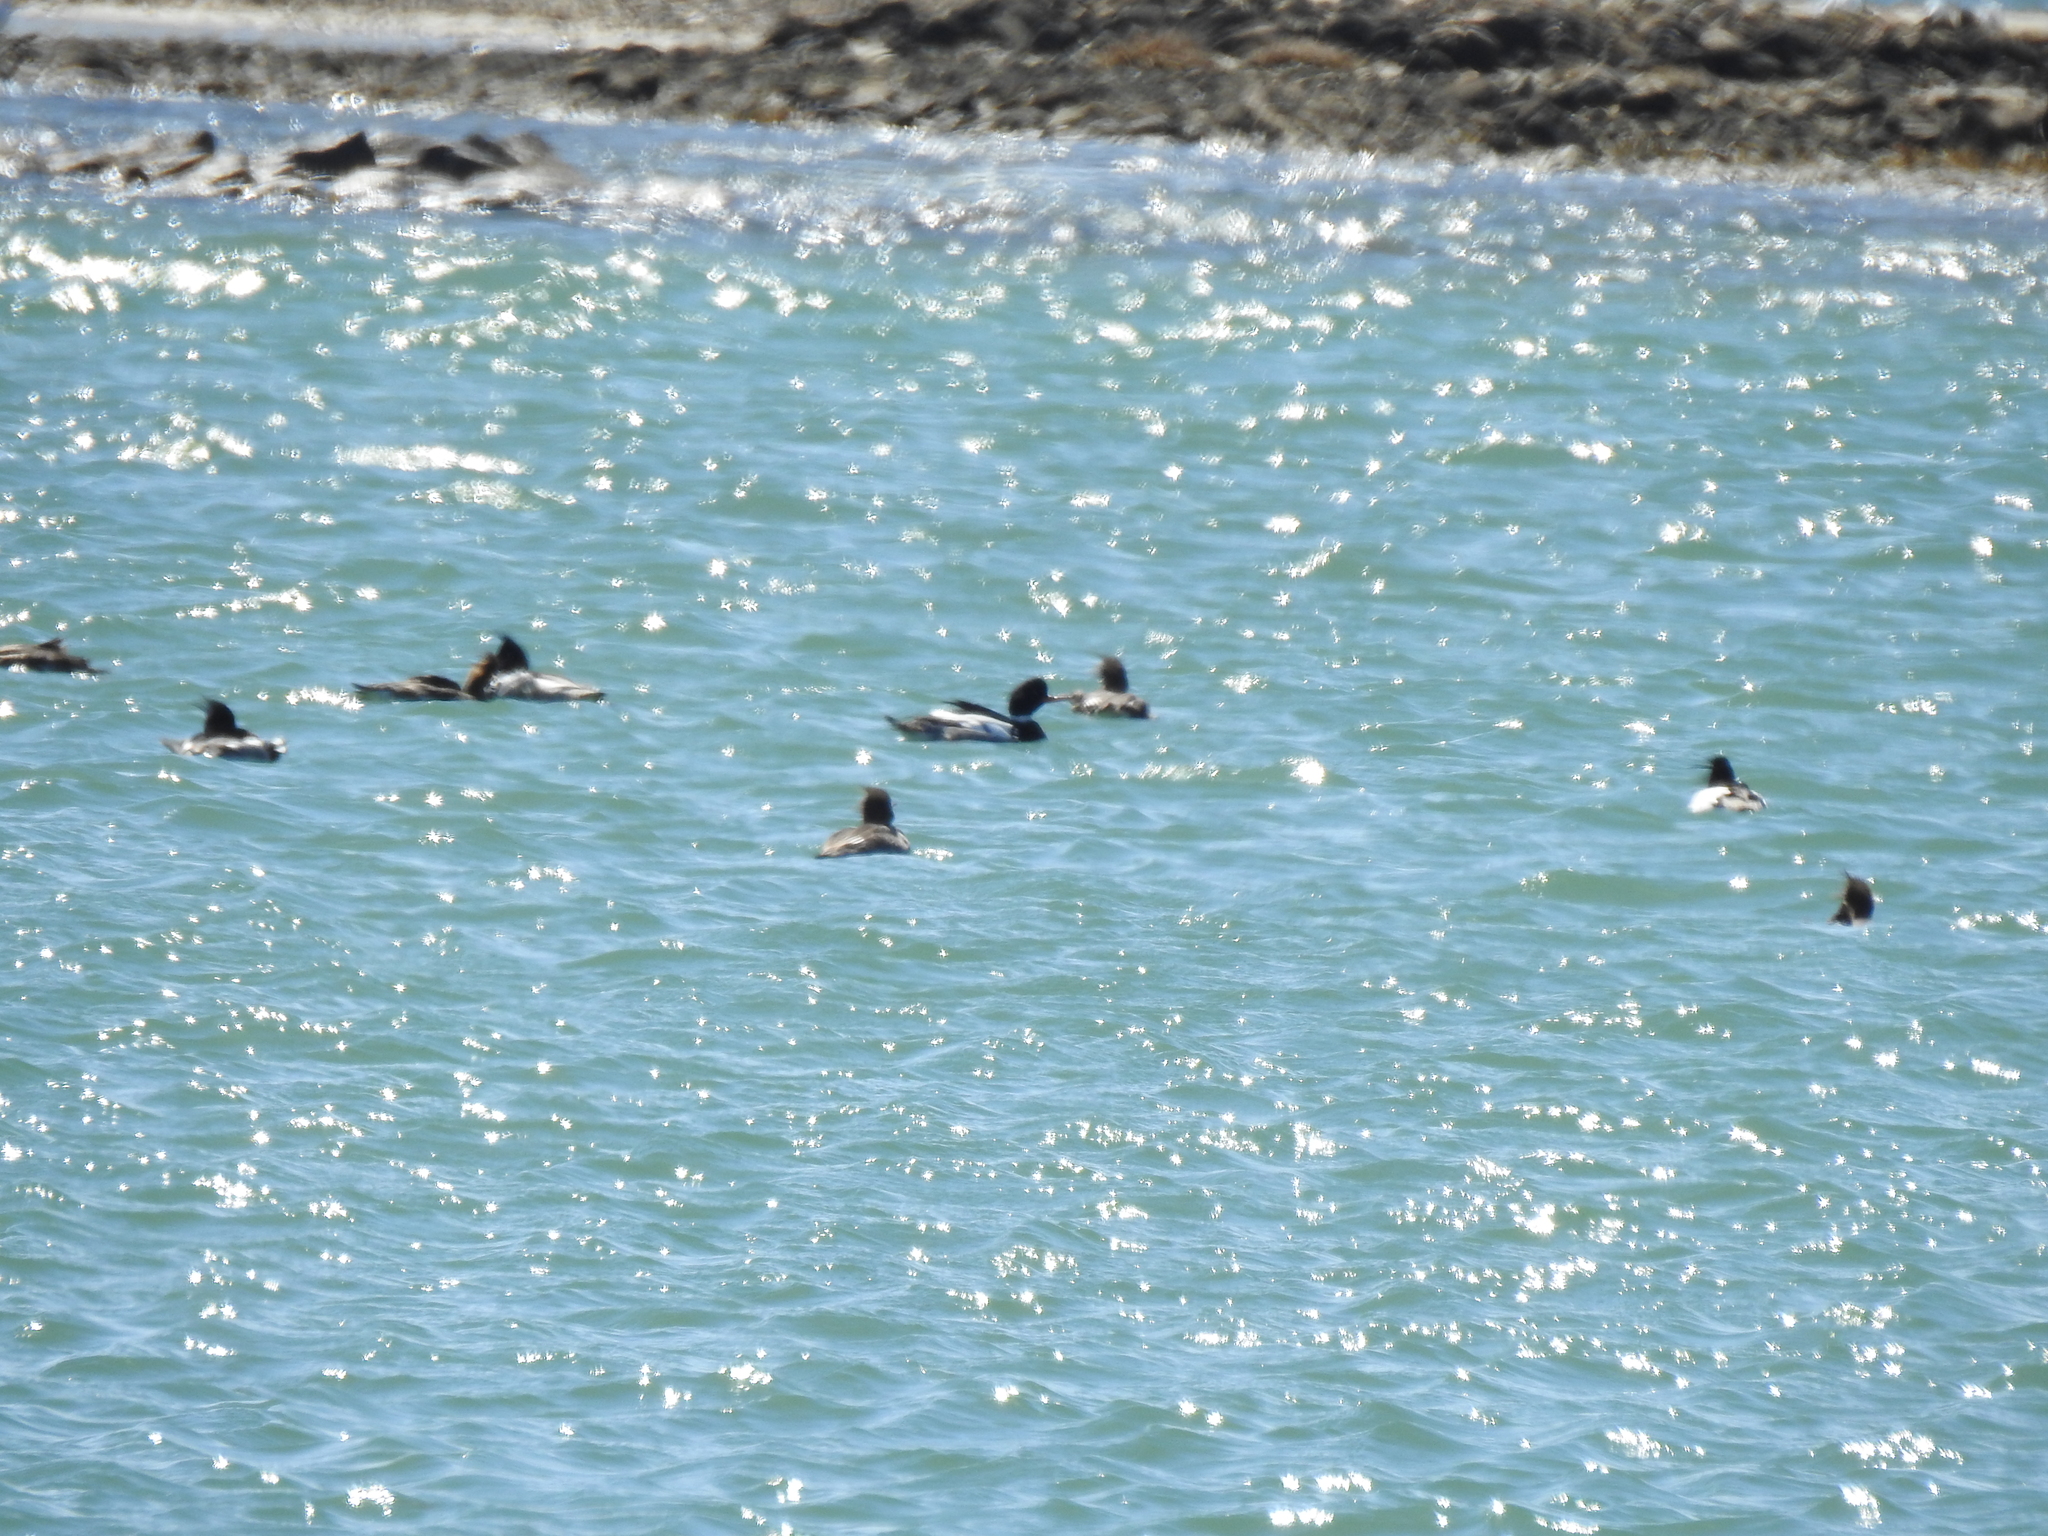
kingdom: Animalia
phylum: Chordata
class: Aves
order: Anseriformes
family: Anatidae
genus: Mergus
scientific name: Mergus serrator
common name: Red-breasted merganser
